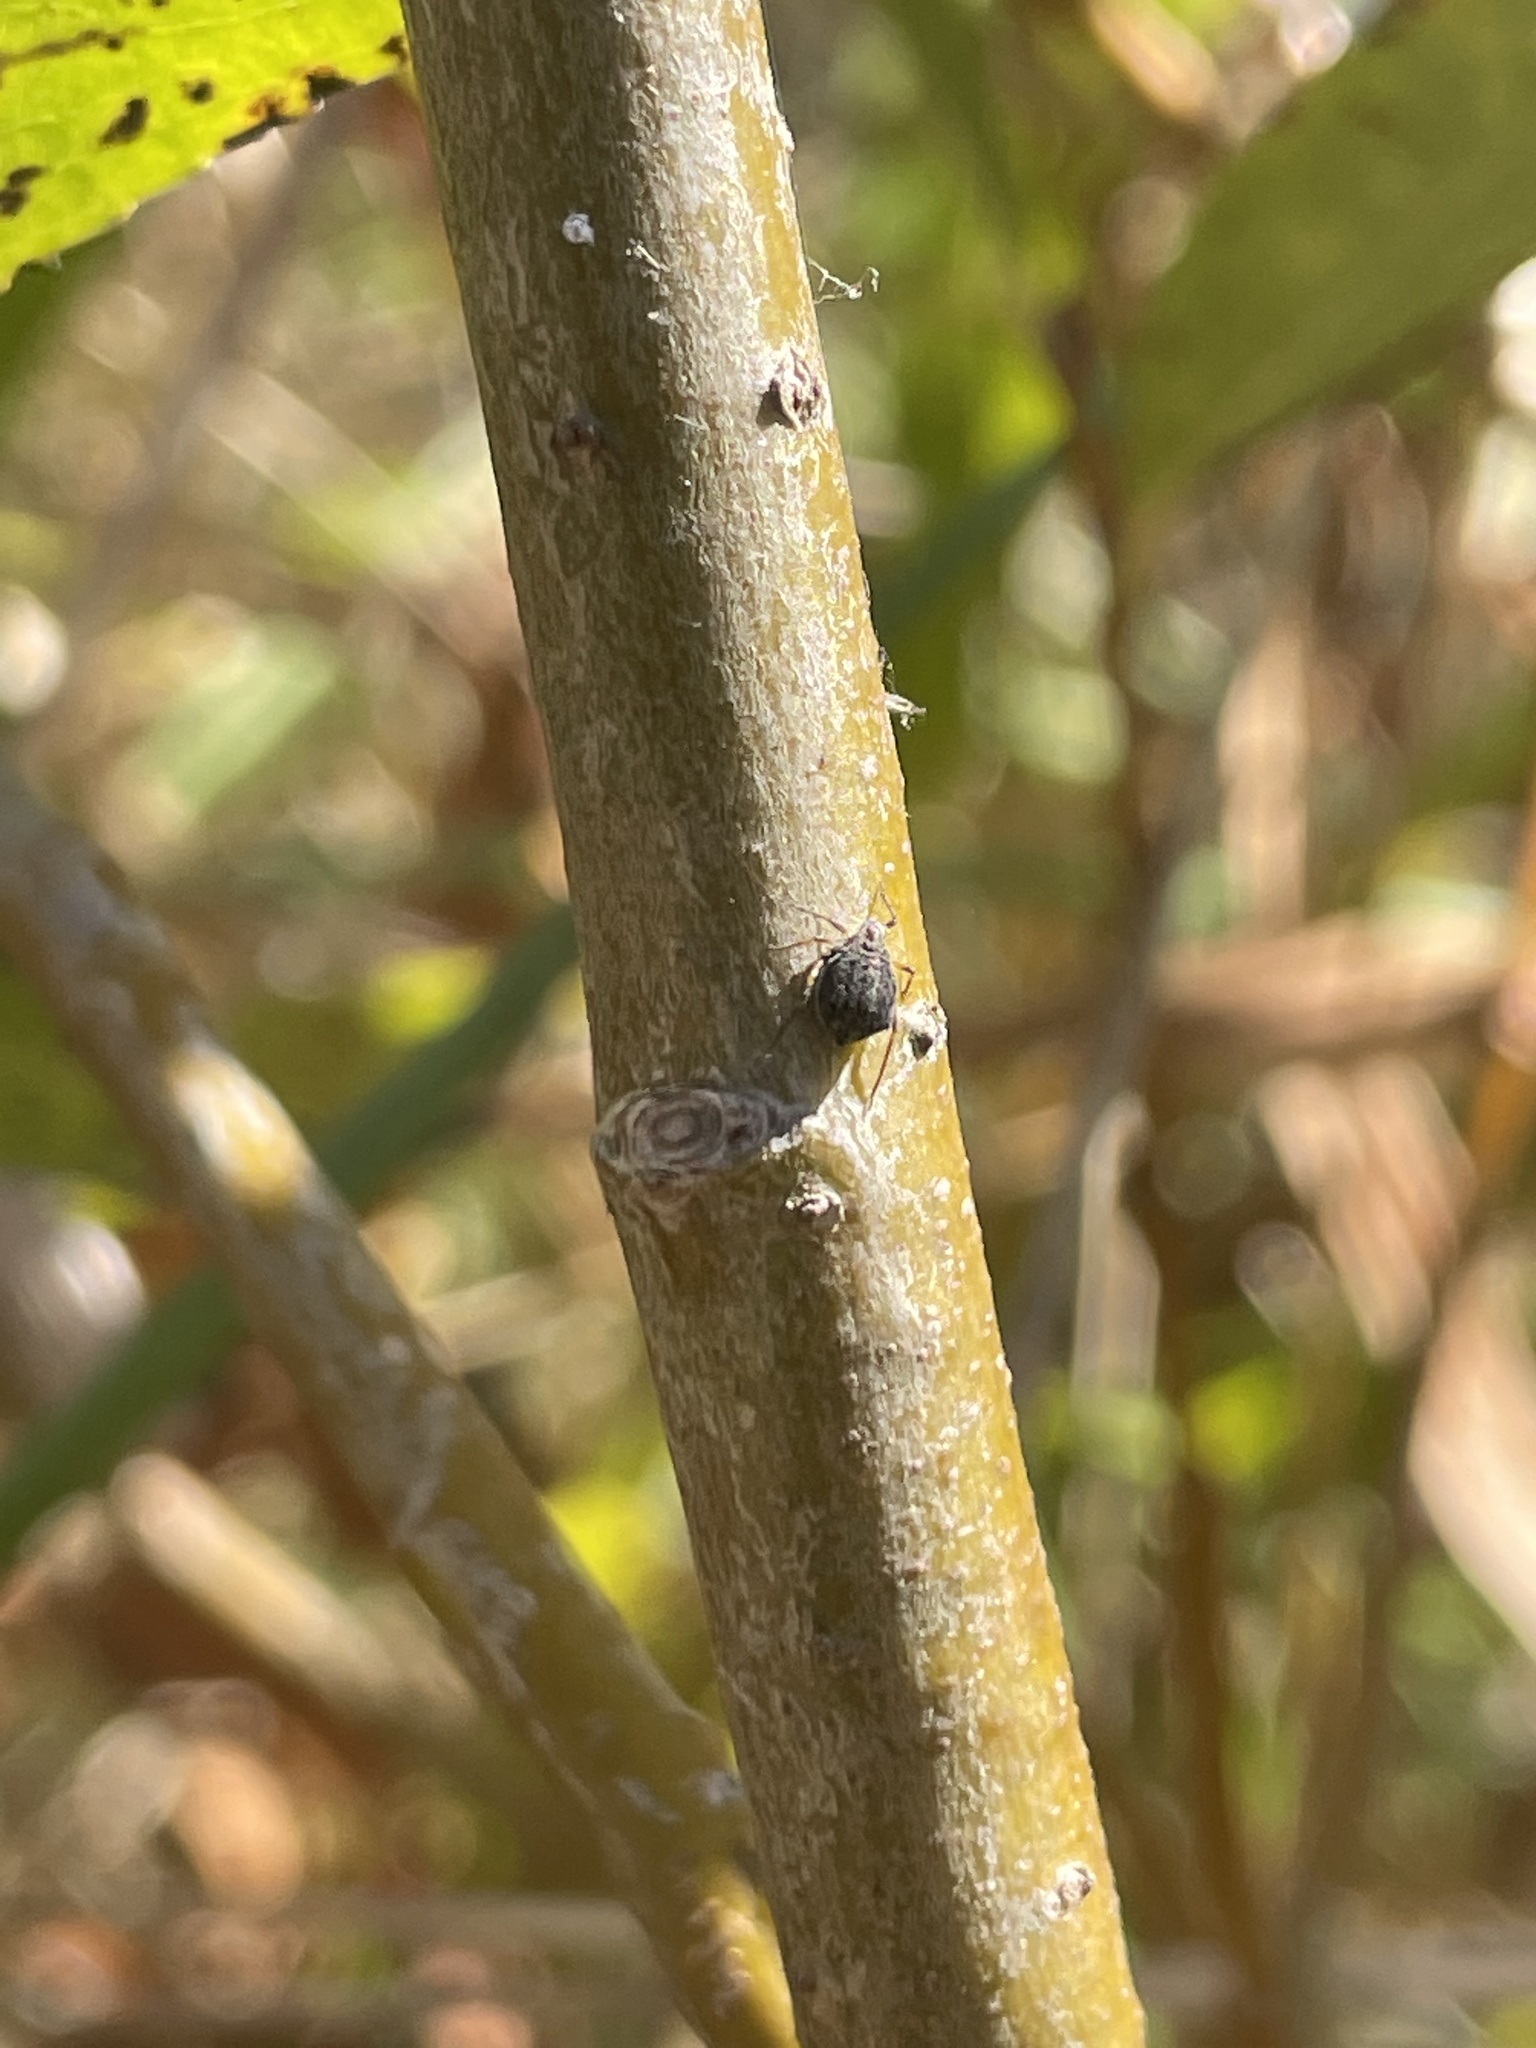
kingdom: Animalia
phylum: Arthropoda
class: Insecta
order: Hymenoptera
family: Braconidae
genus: Pauesia
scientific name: Pauesia nigrovaria
